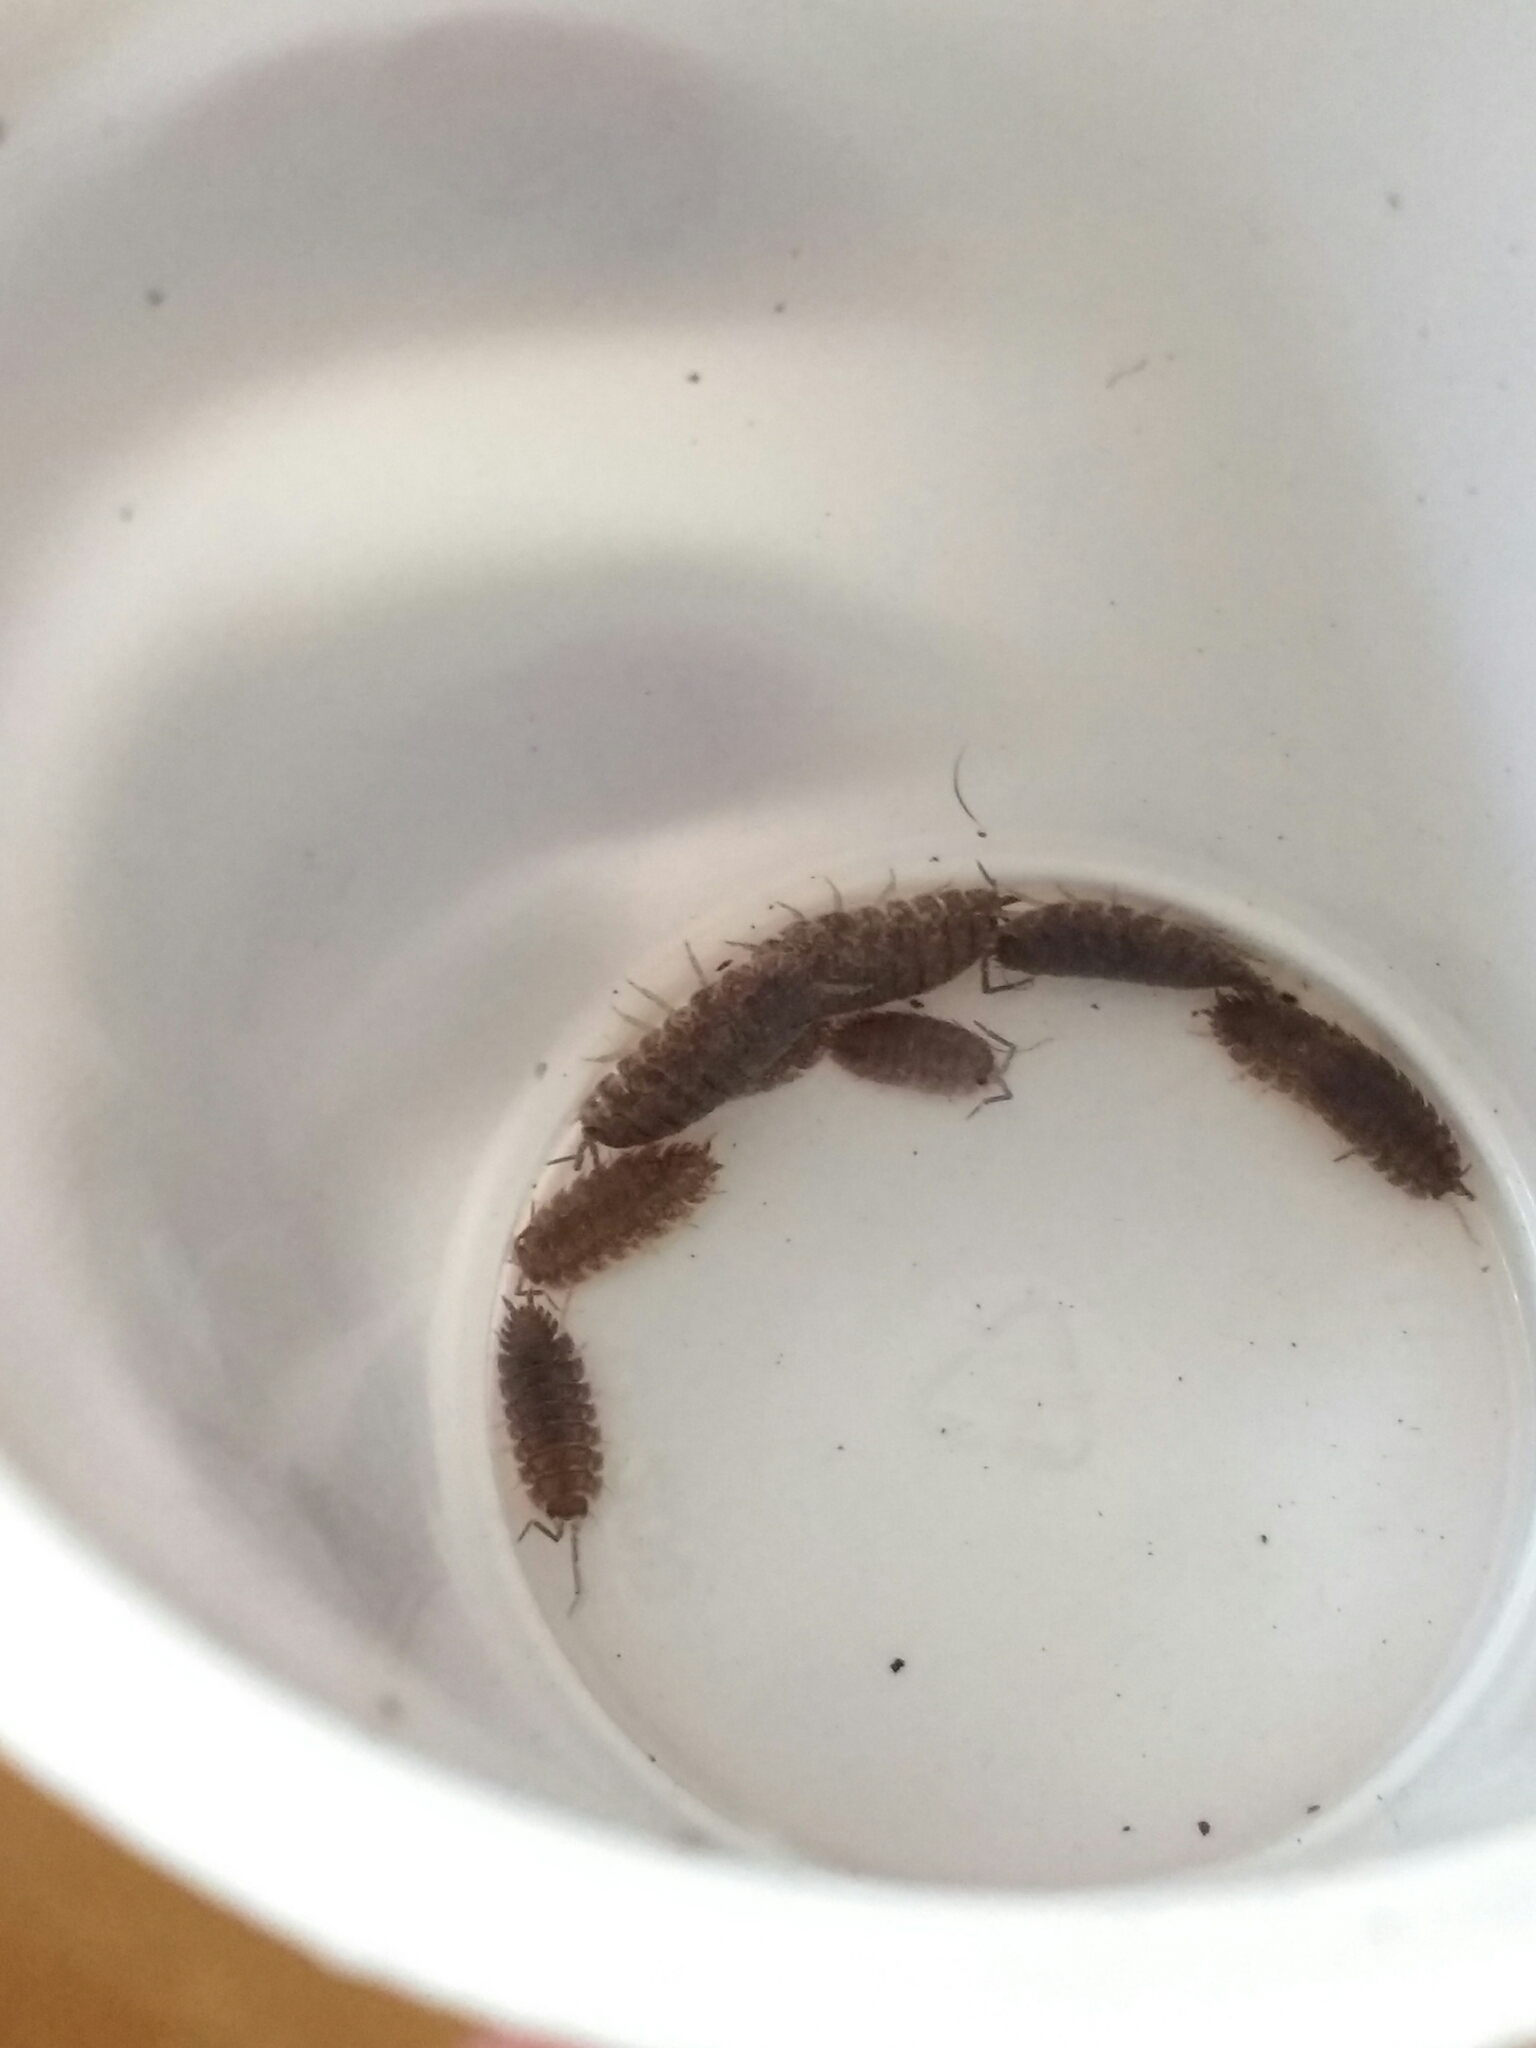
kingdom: Animalia
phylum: Arthropoda
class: Malacostraca
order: Isopoda
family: Porcellionidae
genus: Porcellio
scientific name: Porcellio scaber
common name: Common rough woodlouse
